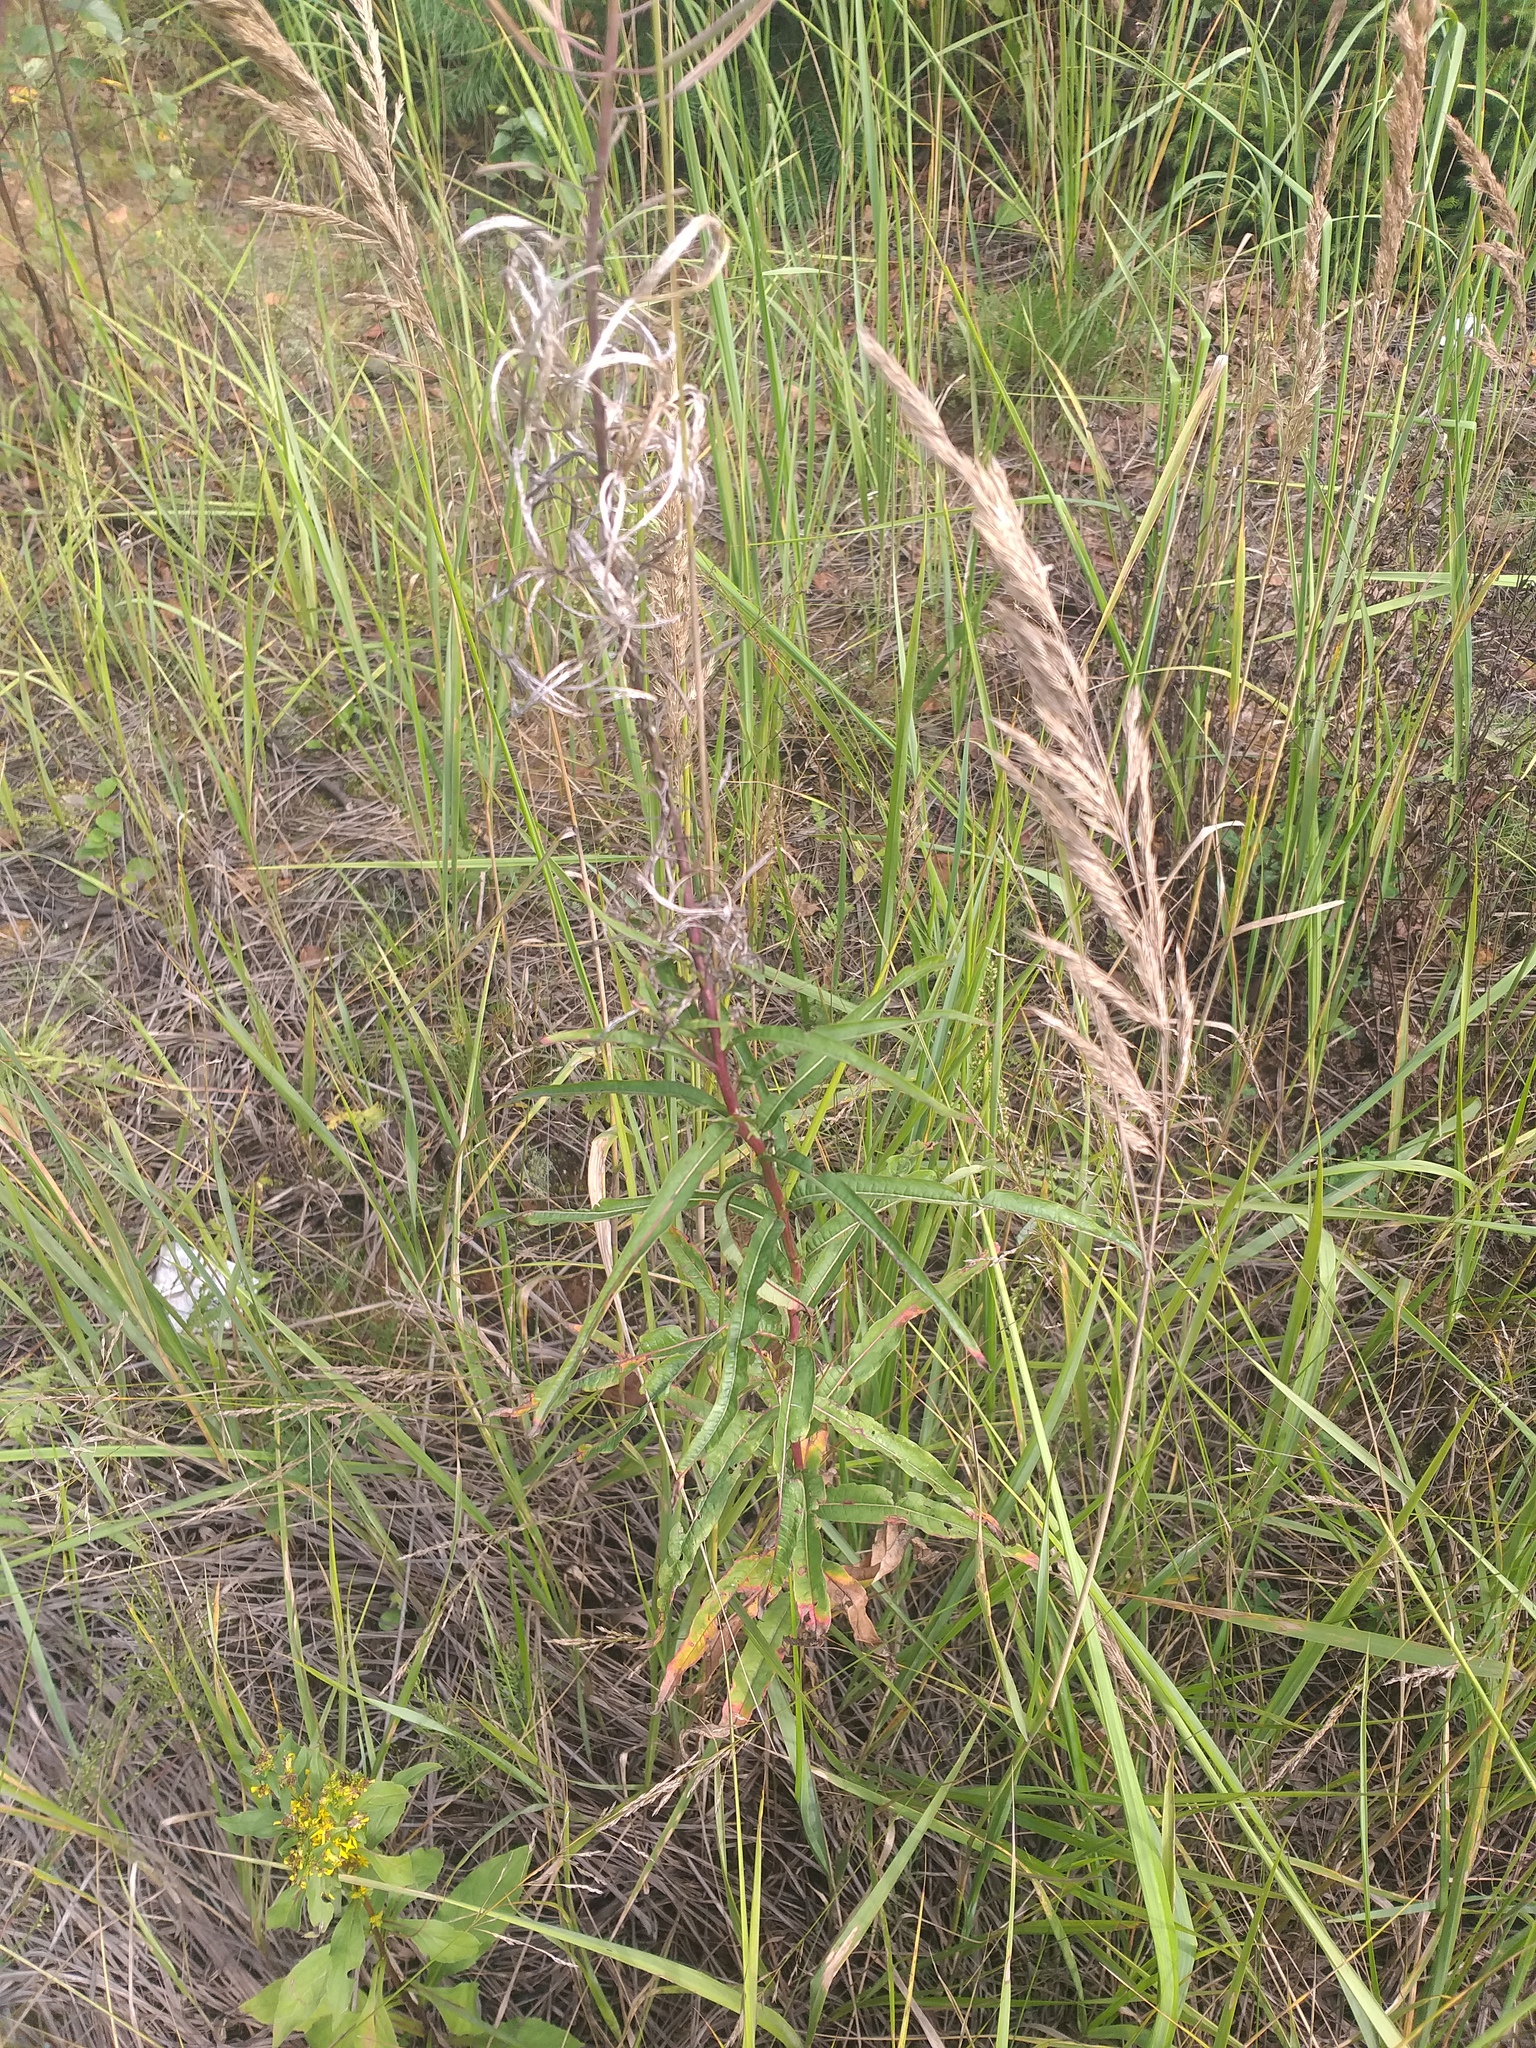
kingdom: Plantae
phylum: Tracheophyta
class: Magnoliopsida
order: Myrtales
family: Onagraceae
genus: Chamaenerion
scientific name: Chamaenerion angustifolium
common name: Fireweed
